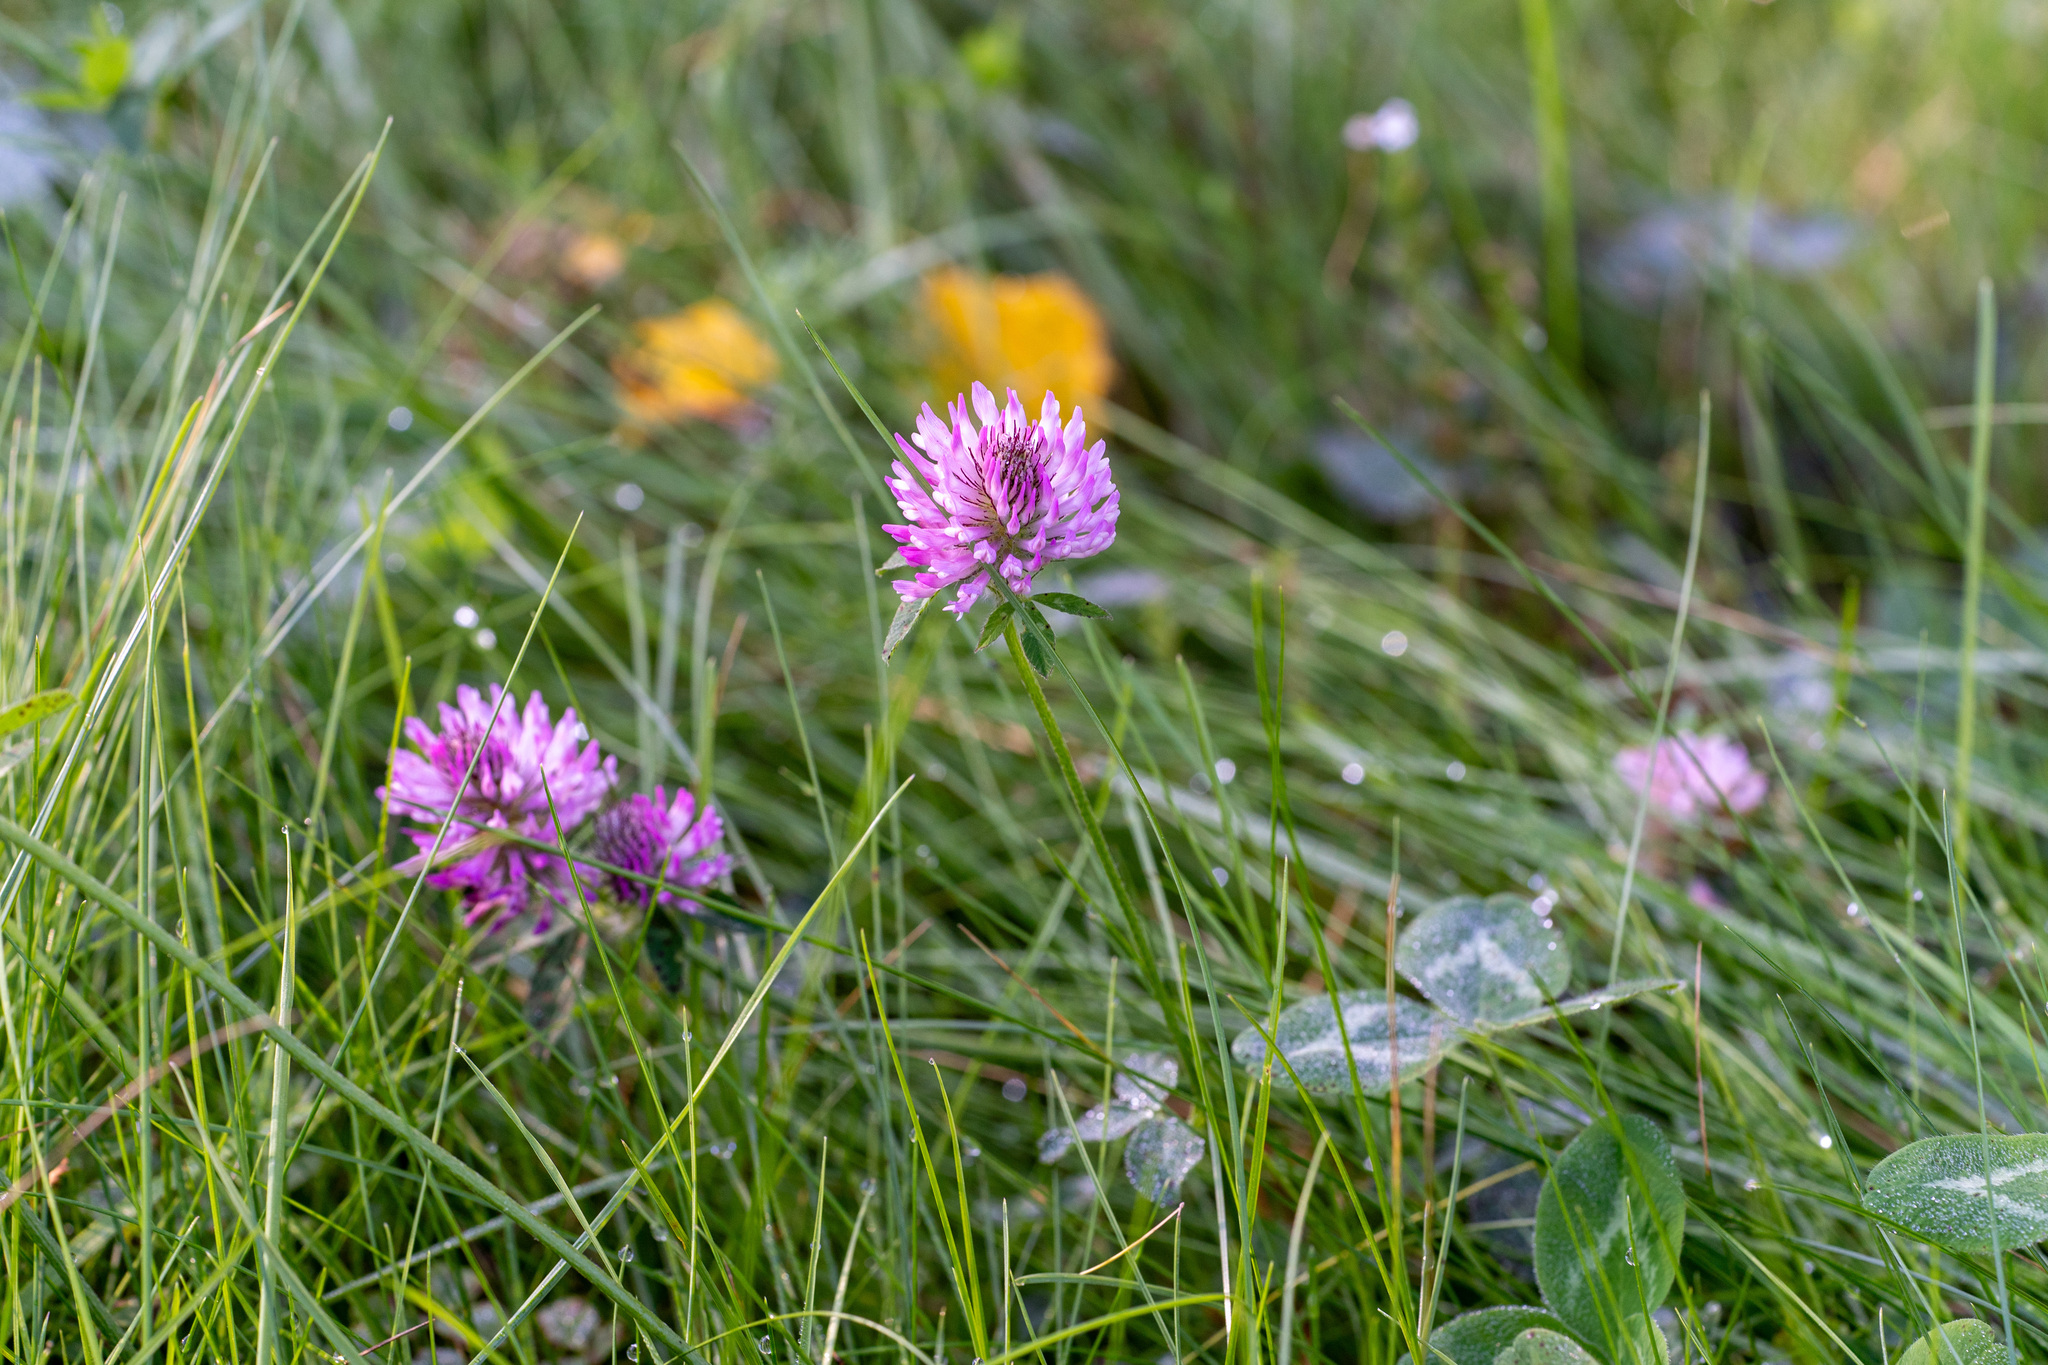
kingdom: Plantae
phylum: Tracheophyta
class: Magnoliopsida
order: Fabales
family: Fabaceae
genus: Trifolium
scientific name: Trifolium pratense
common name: Red clover
